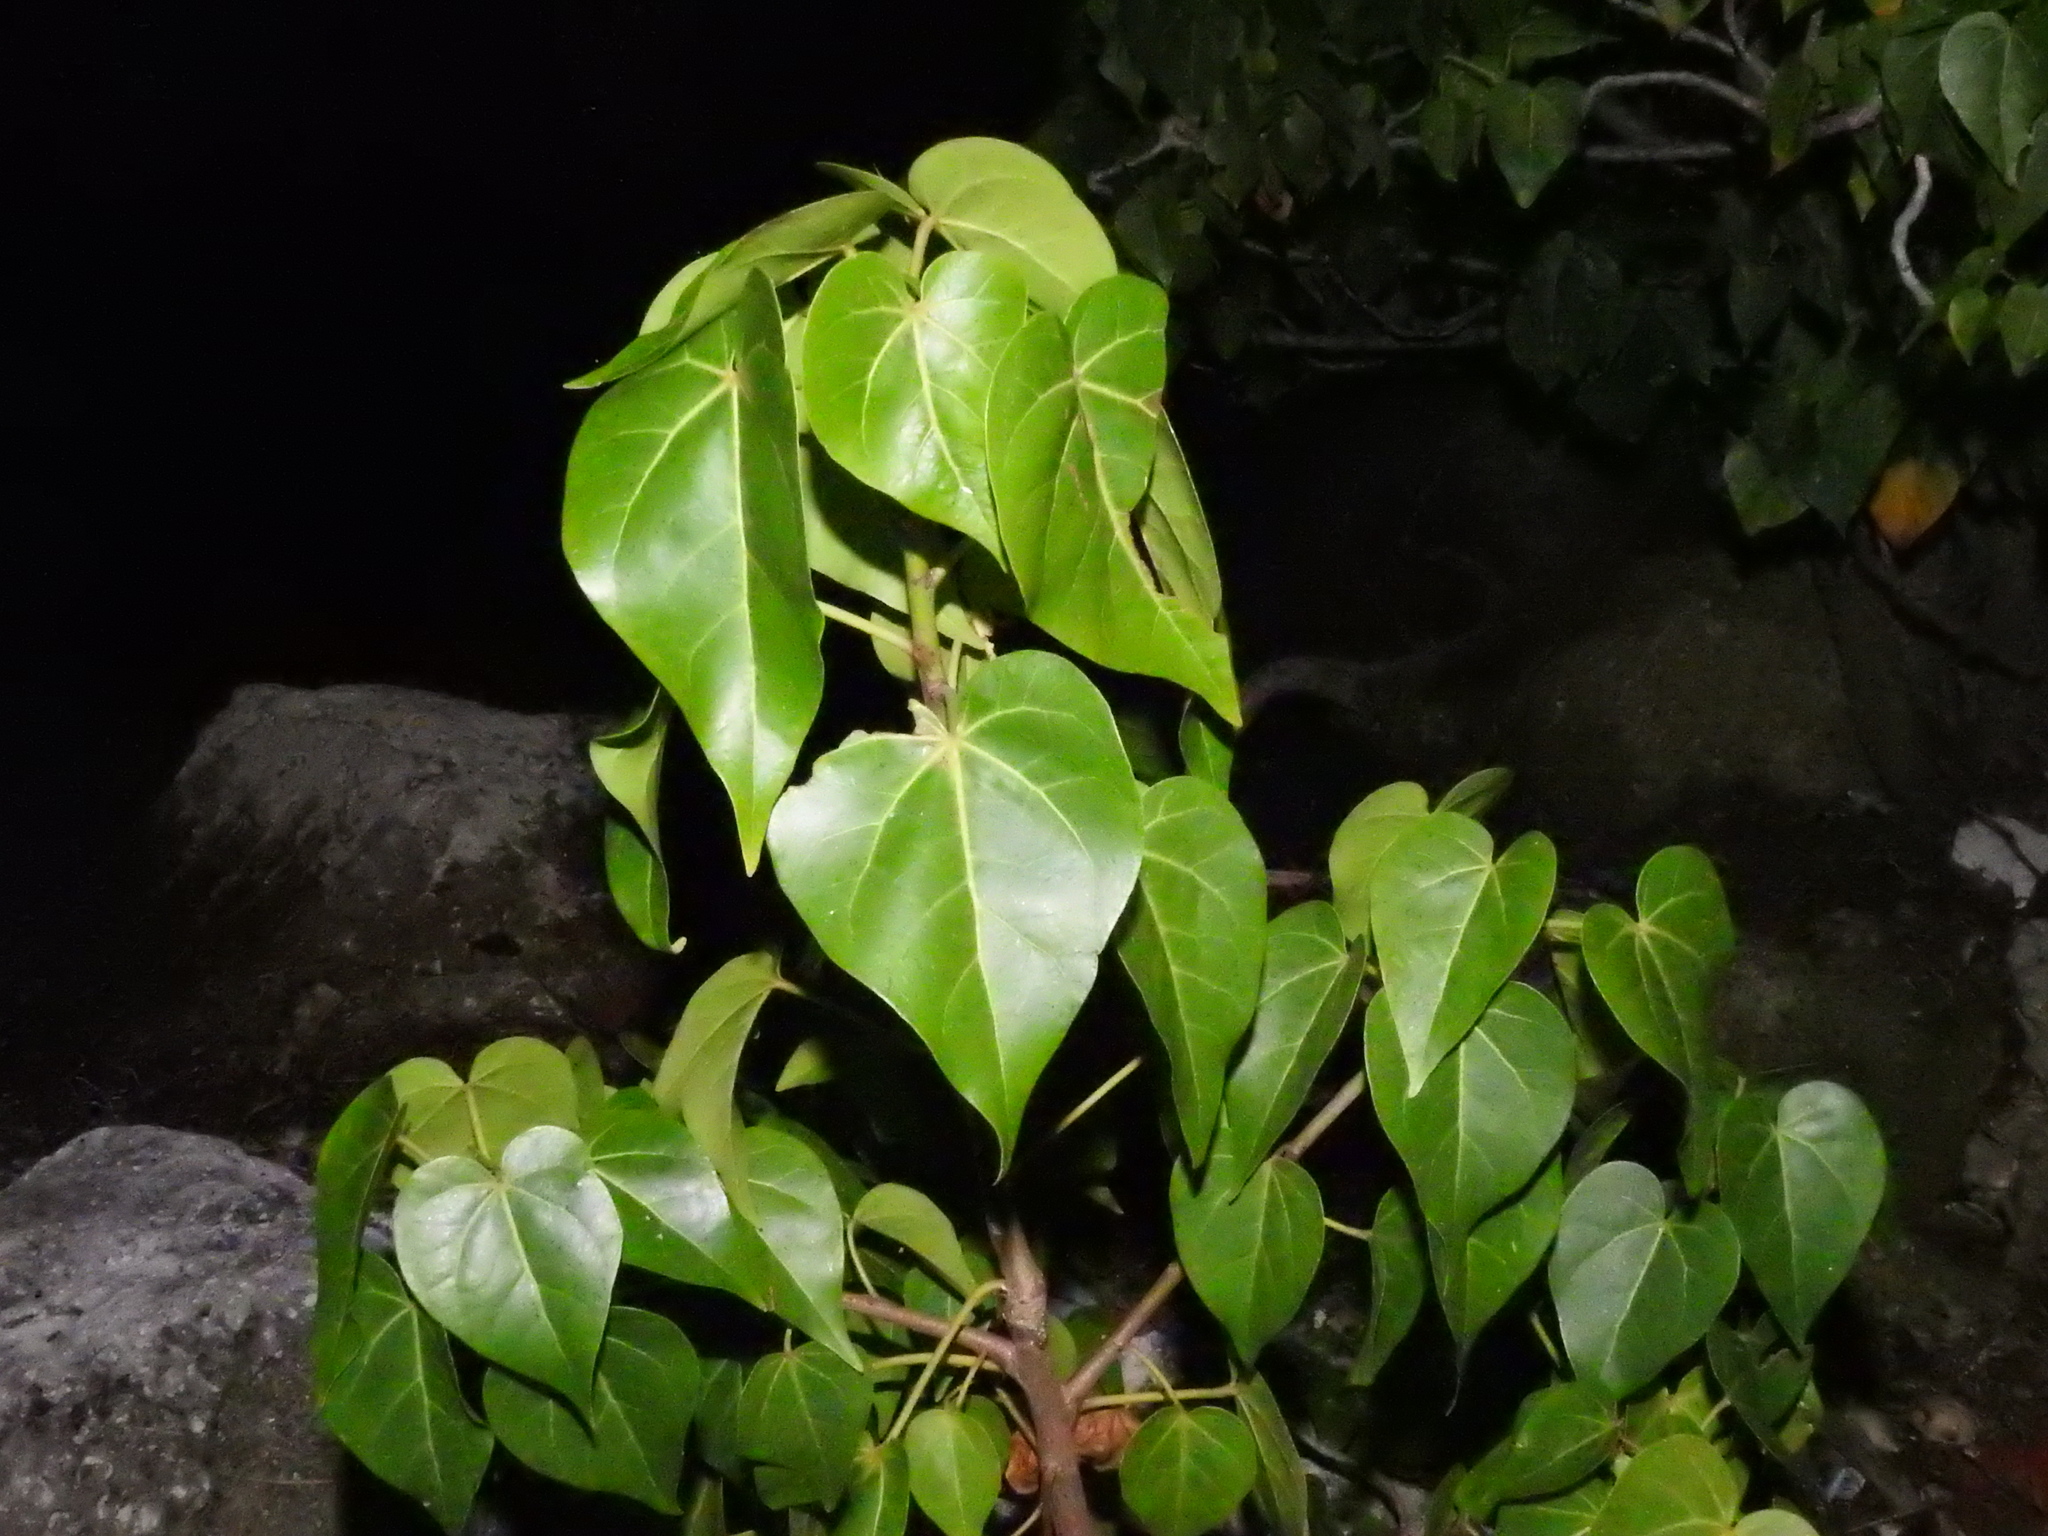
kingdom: Plantae
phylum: Tracheophyta
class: Magnoliopsida
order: Malvales
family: Malvaceae
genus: Thespesia
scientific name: Thespesia populnea
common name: Seaside mahoe
